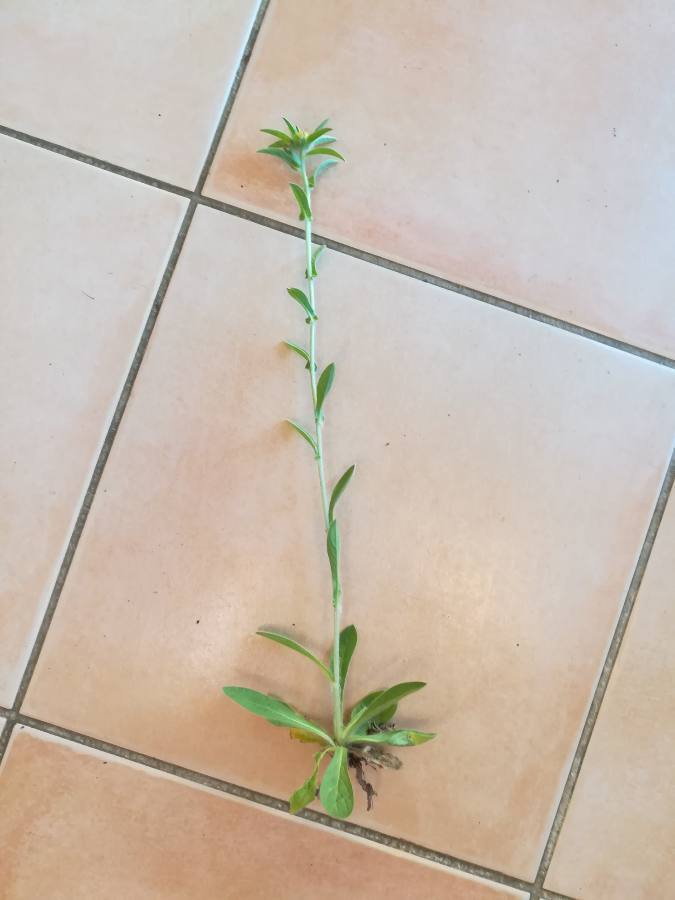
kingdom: Plantae
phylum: Tracheophyta
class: Magnoliopsida
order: Asterales
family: Asteraceae
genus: Pallenis
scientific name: Pallenis spinosa
